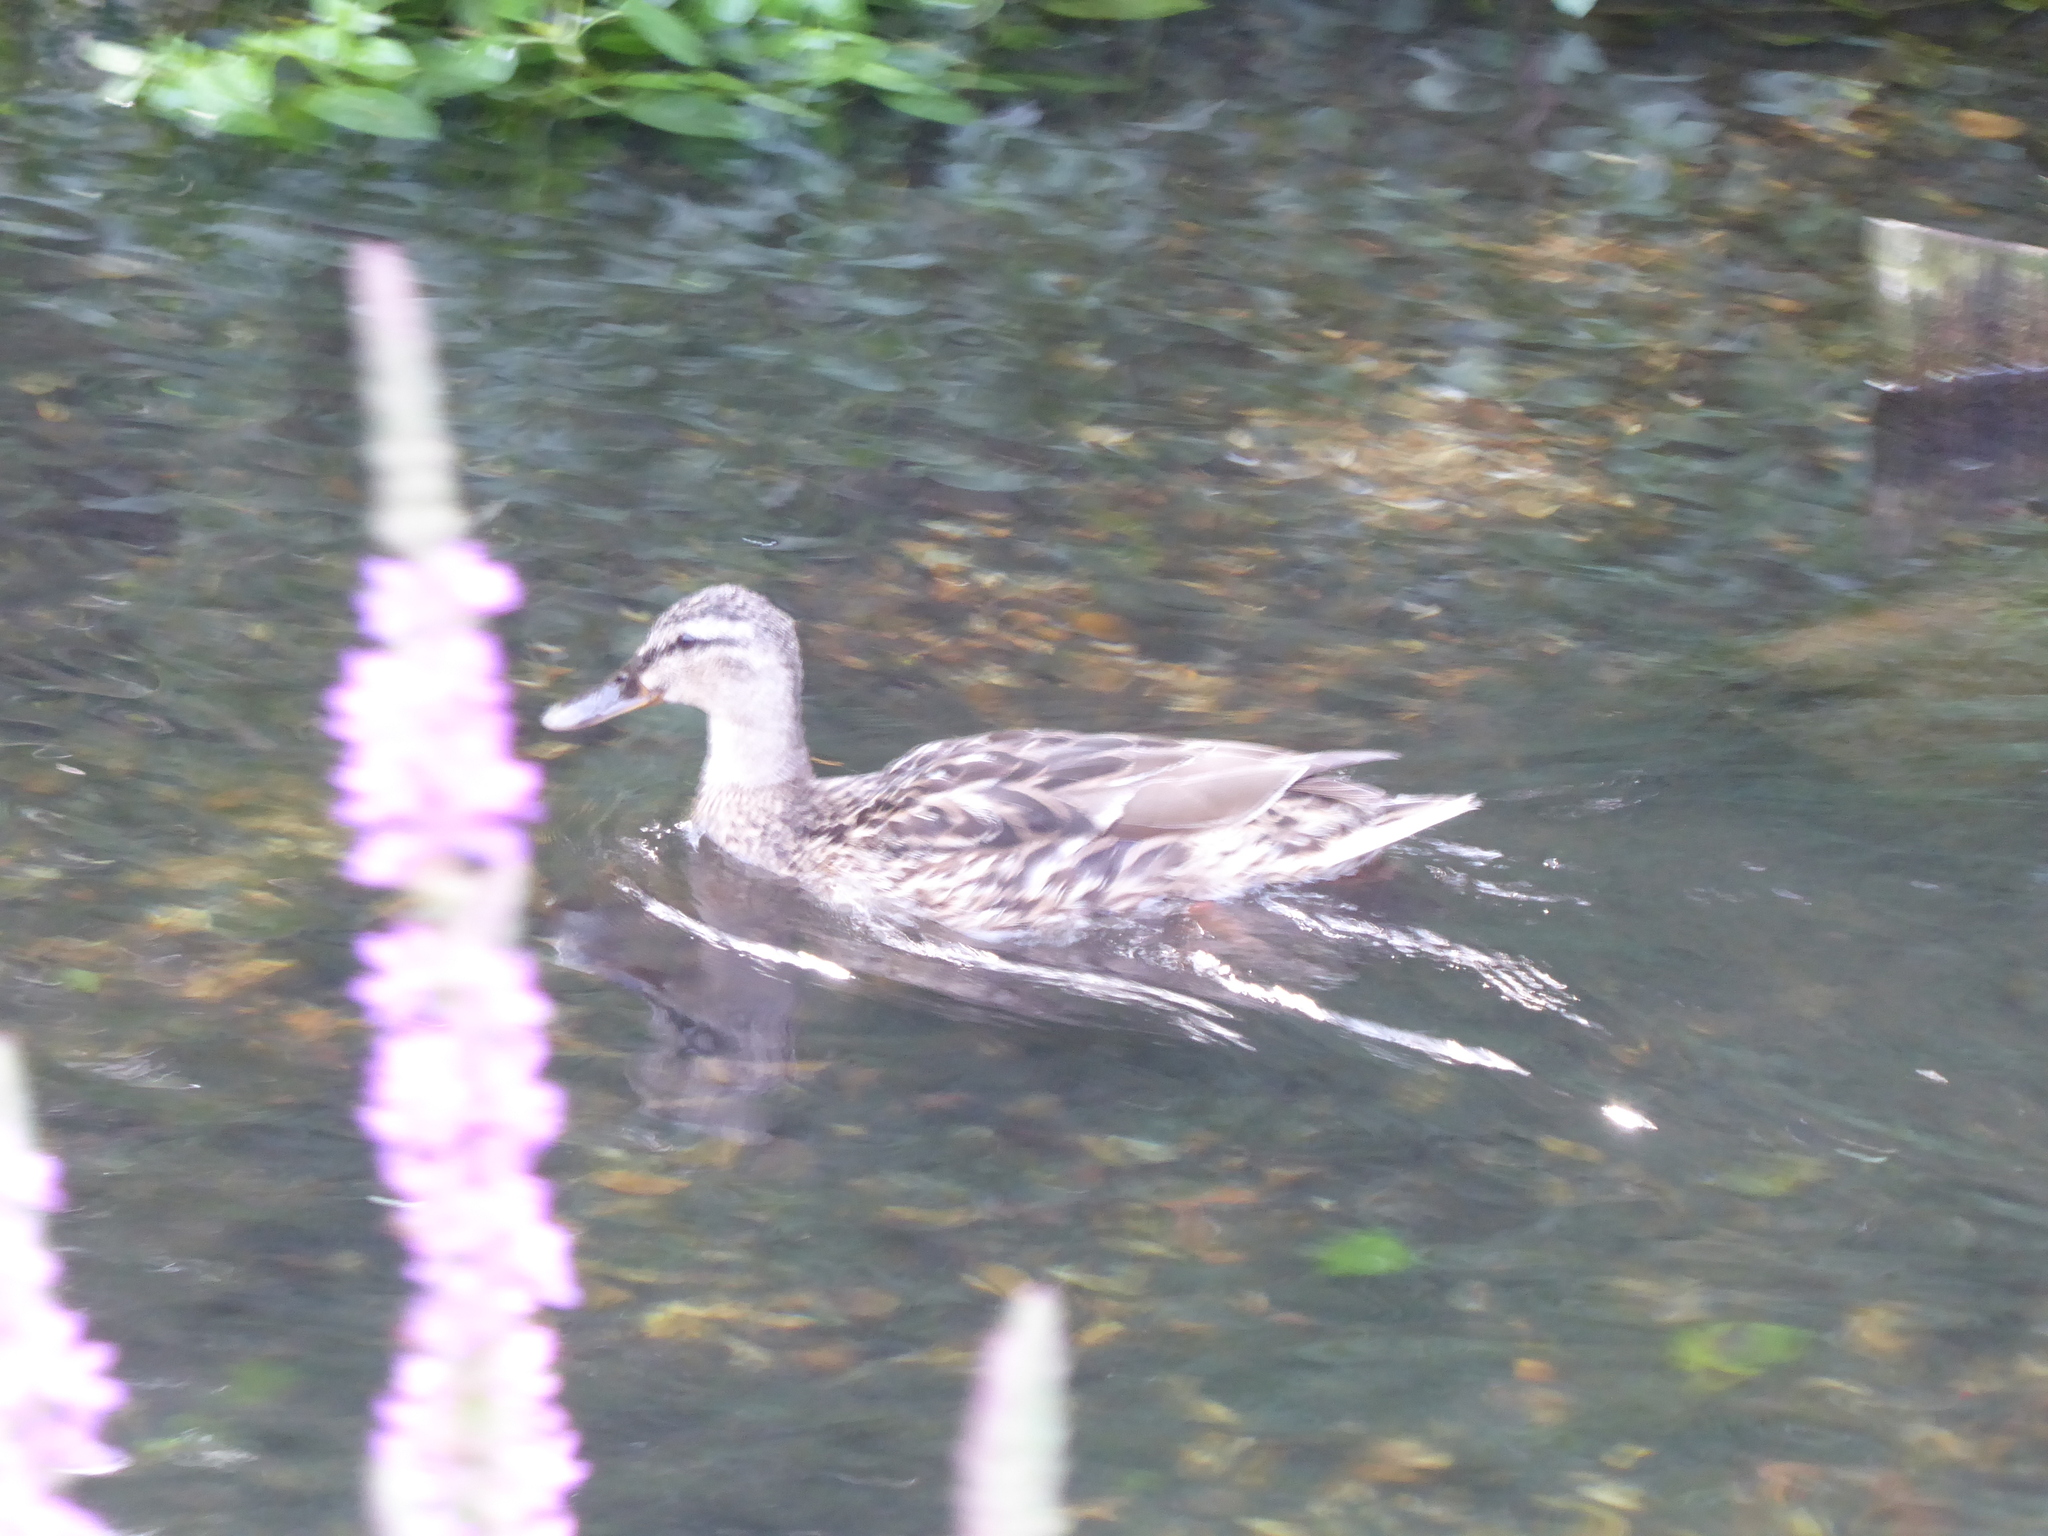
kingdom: Animalia
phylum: Chordata
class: Aves
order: Anseriformes
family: Anatidae
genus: Anas
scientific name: Anas platyrhynchos
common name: Mallard
